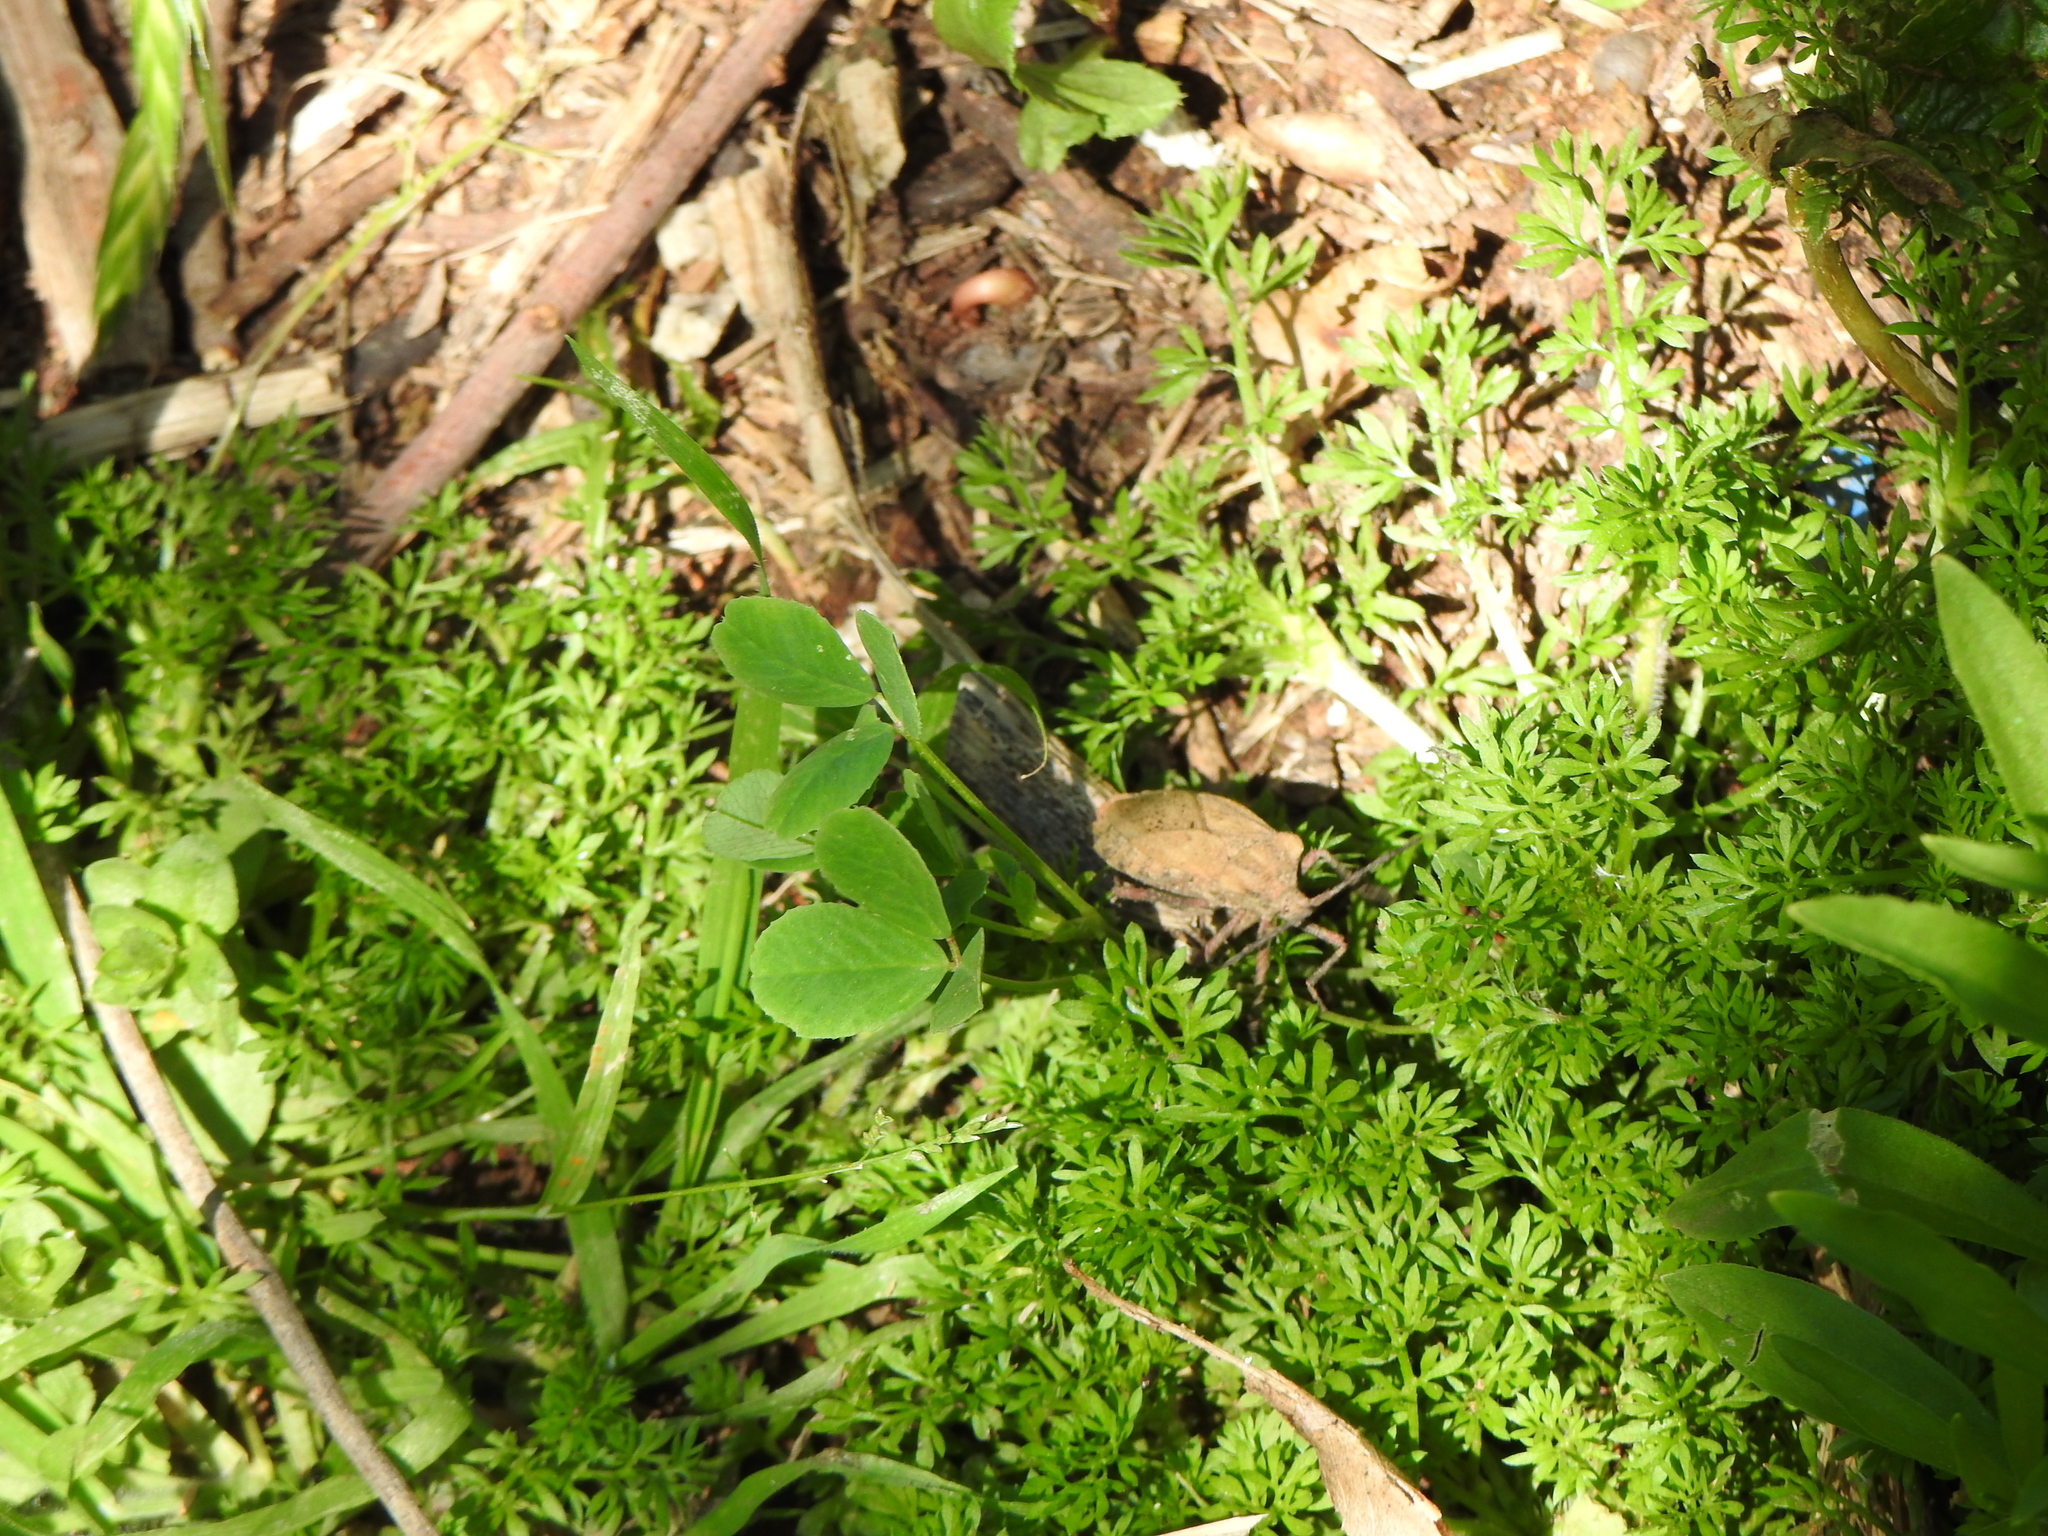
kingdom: Animalia
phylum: Arthropoda
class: Insecta
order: Hemiptera
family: Coreidae
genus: Spartocera
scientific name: Spartocera fusca
